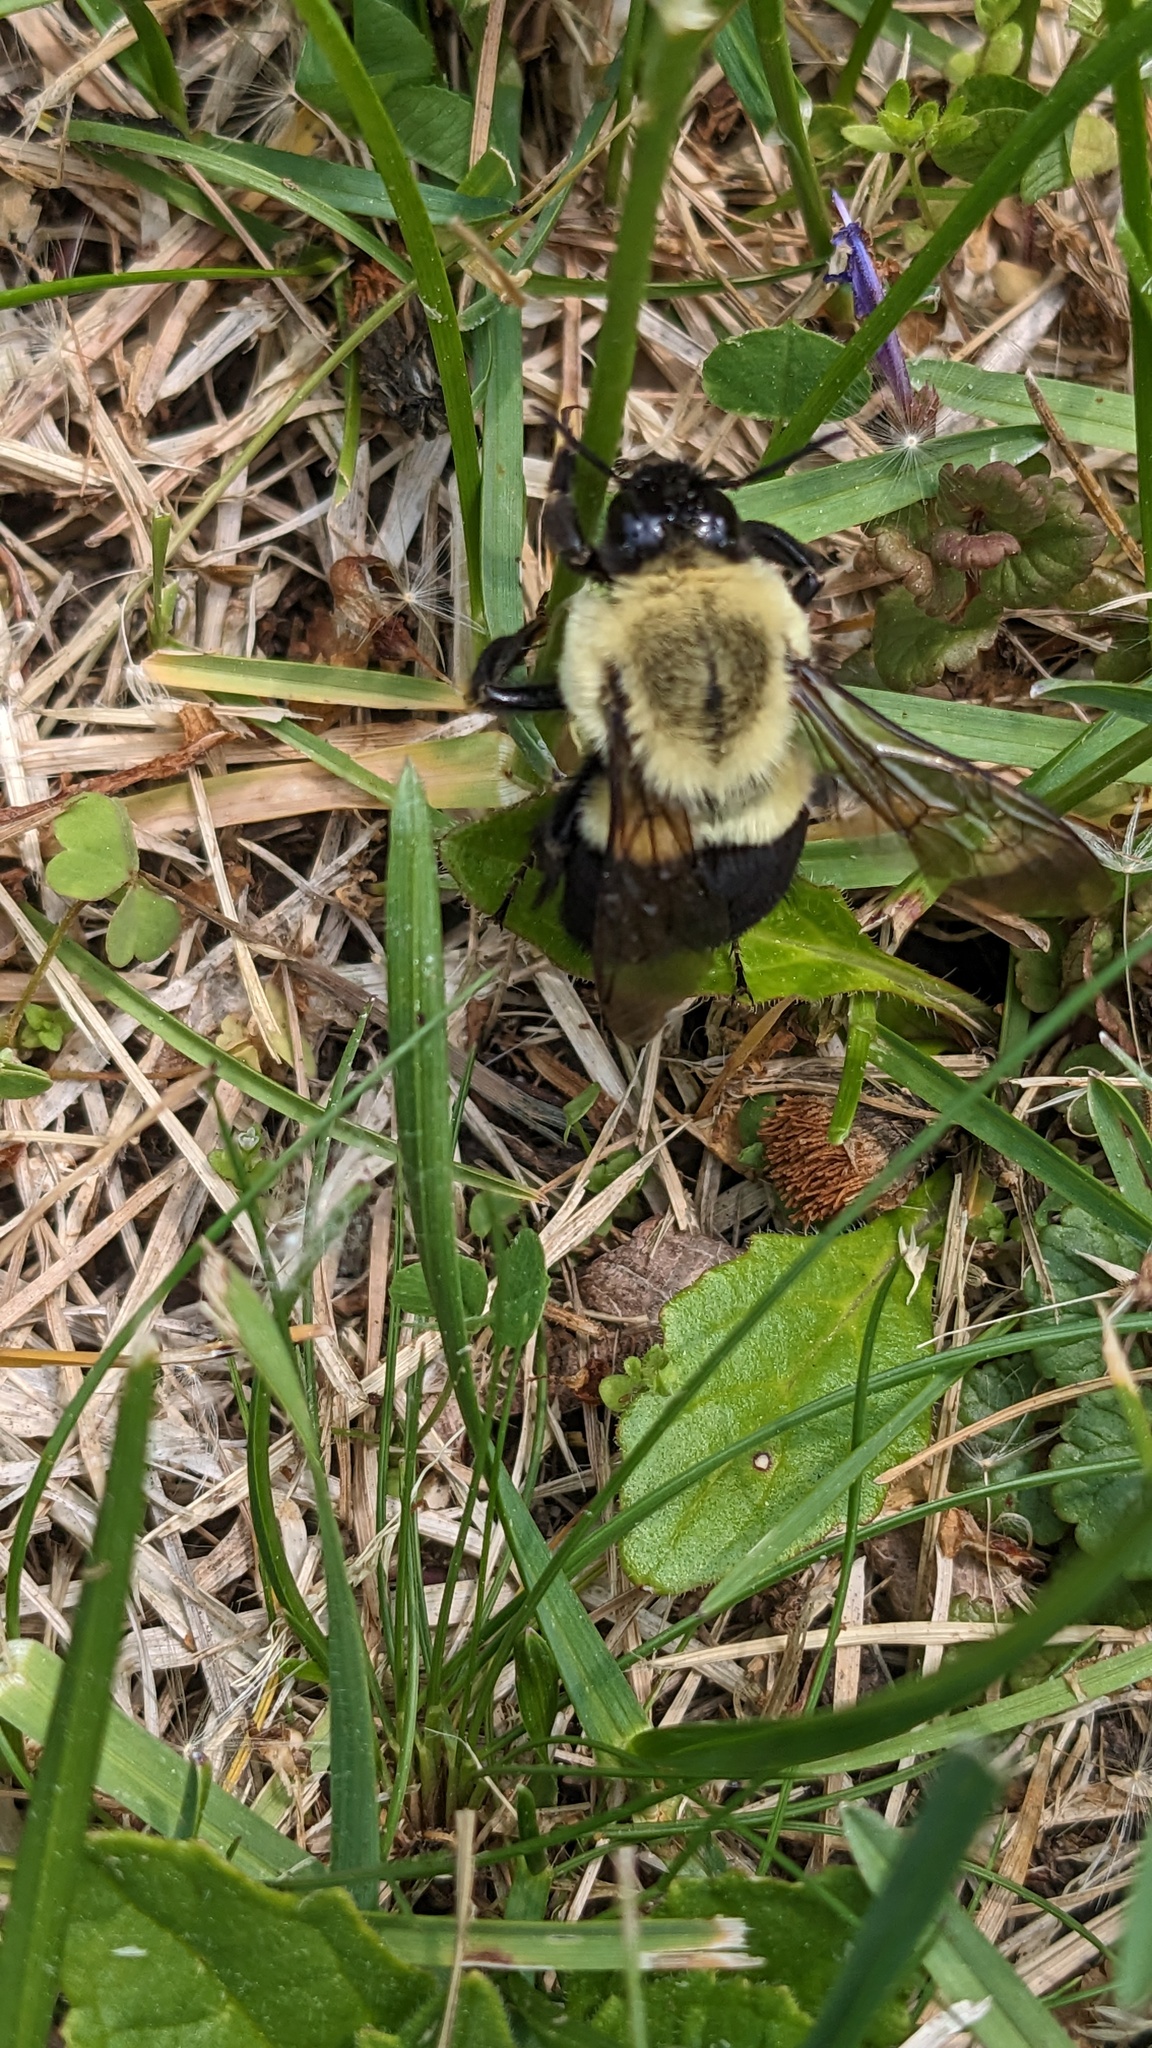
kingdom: Animalia
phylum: Arthropoda
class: Insecta
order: Hymenoptera
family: Apidae
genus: Bombus
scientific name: Bombus impatiens
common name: Common eastern bumble bee
